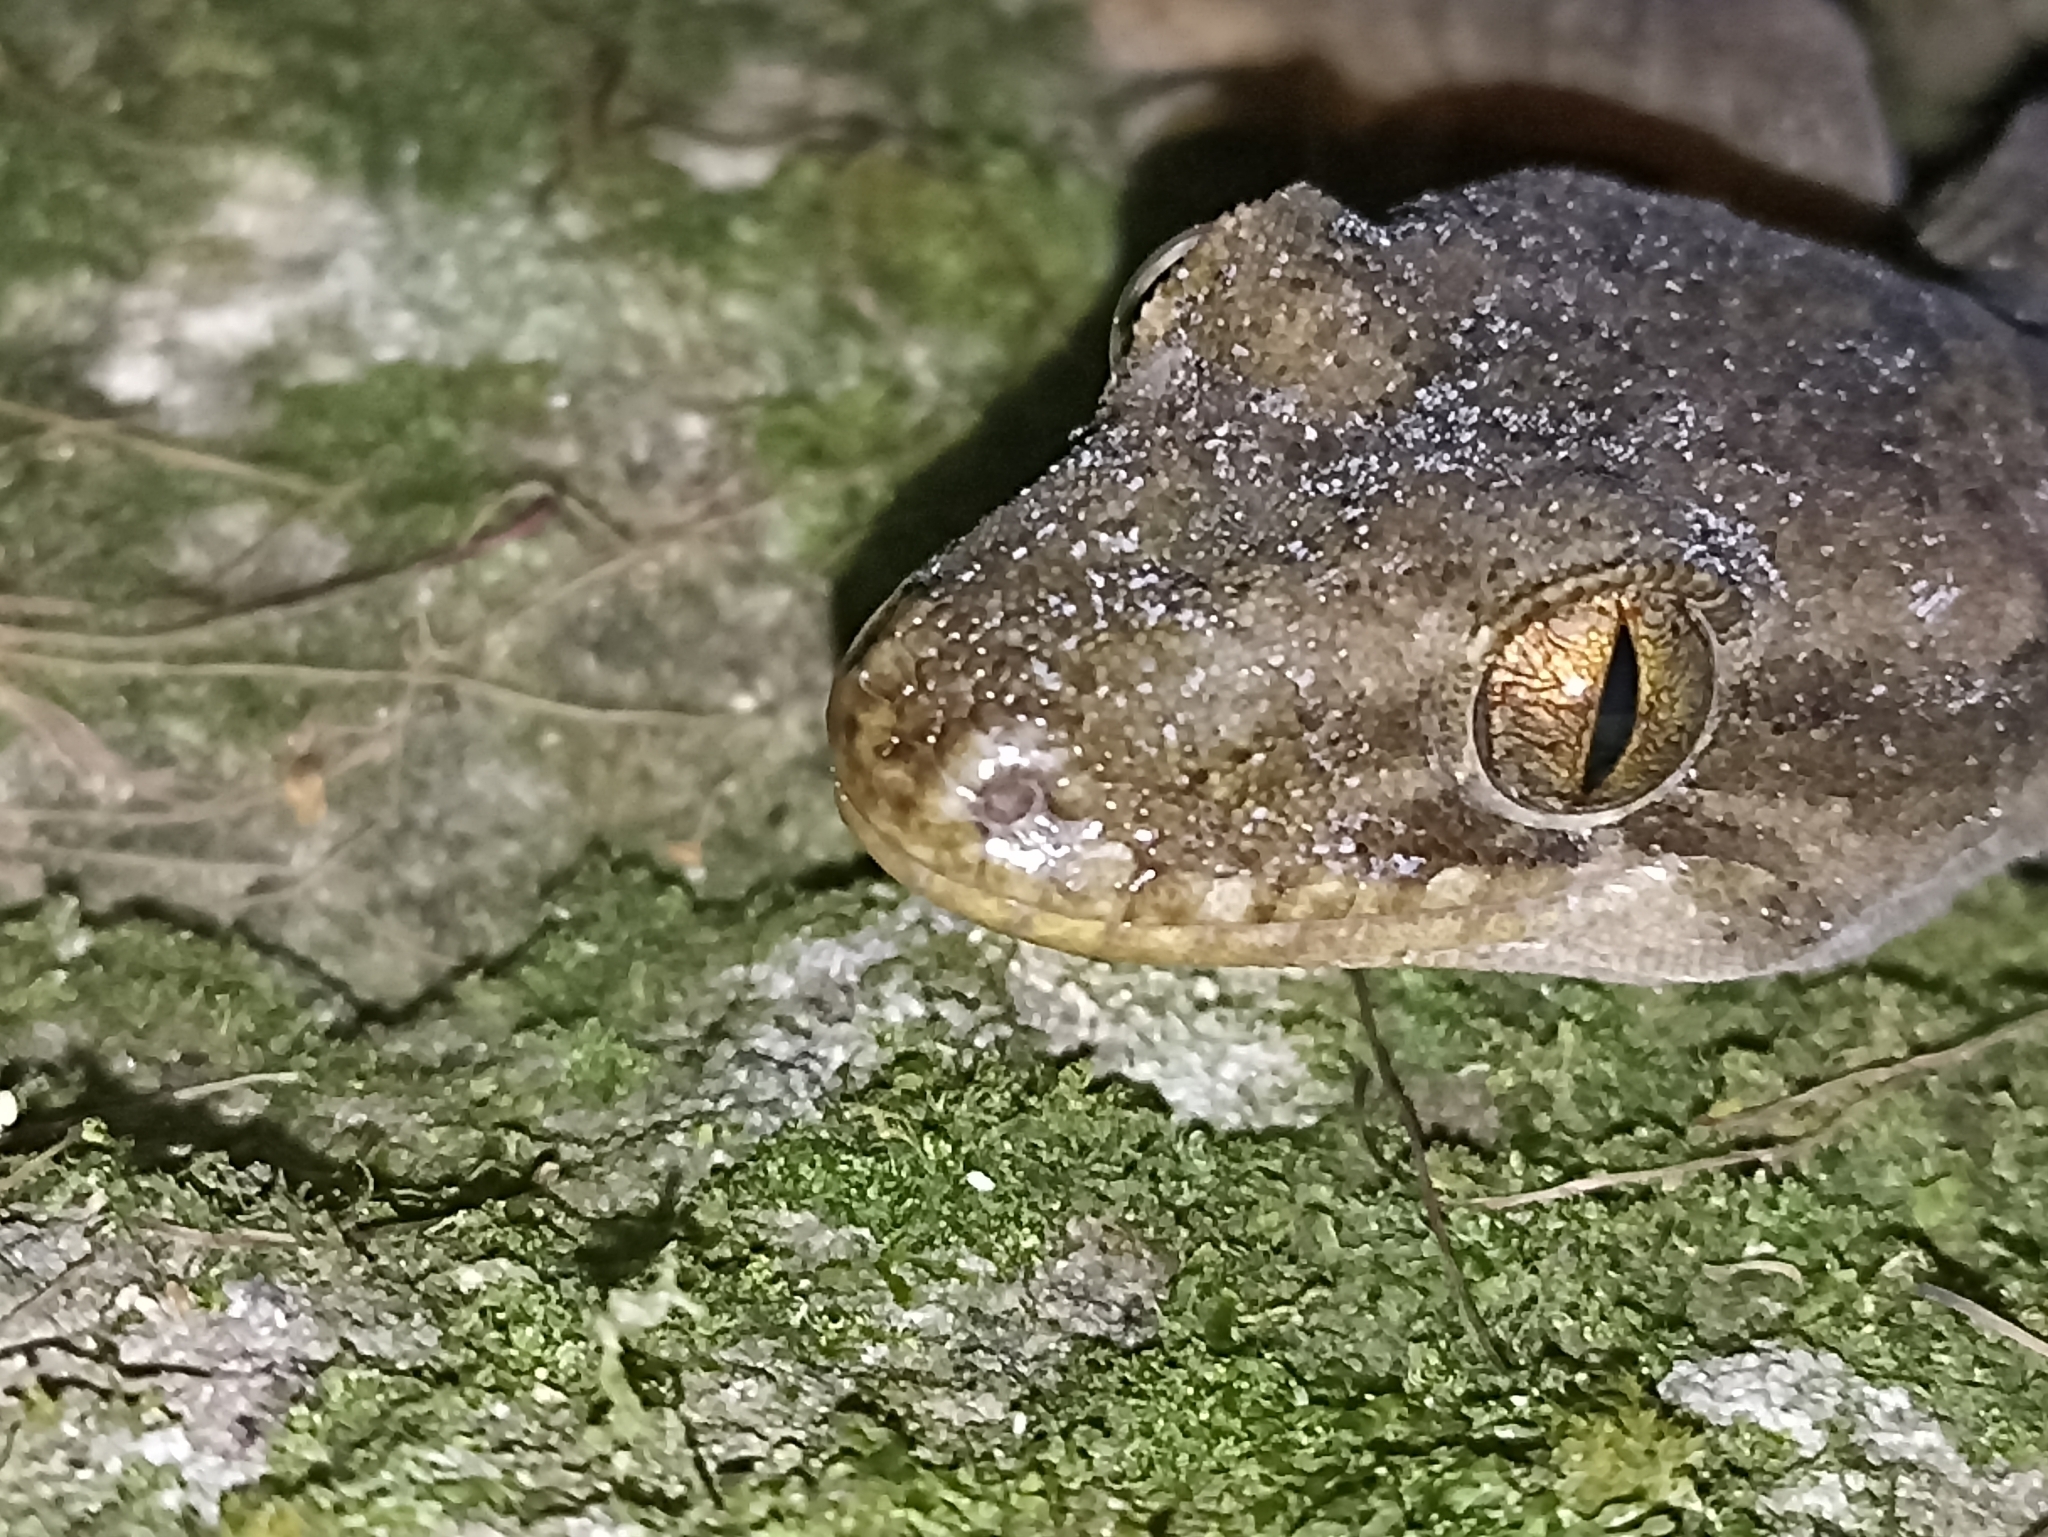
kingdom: Animalia
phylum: Chordata
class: Squamata
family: Diplodactylidae
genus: Dactylocnemis
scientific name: Dactylocnemis pacificus
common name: Pacific gecko
